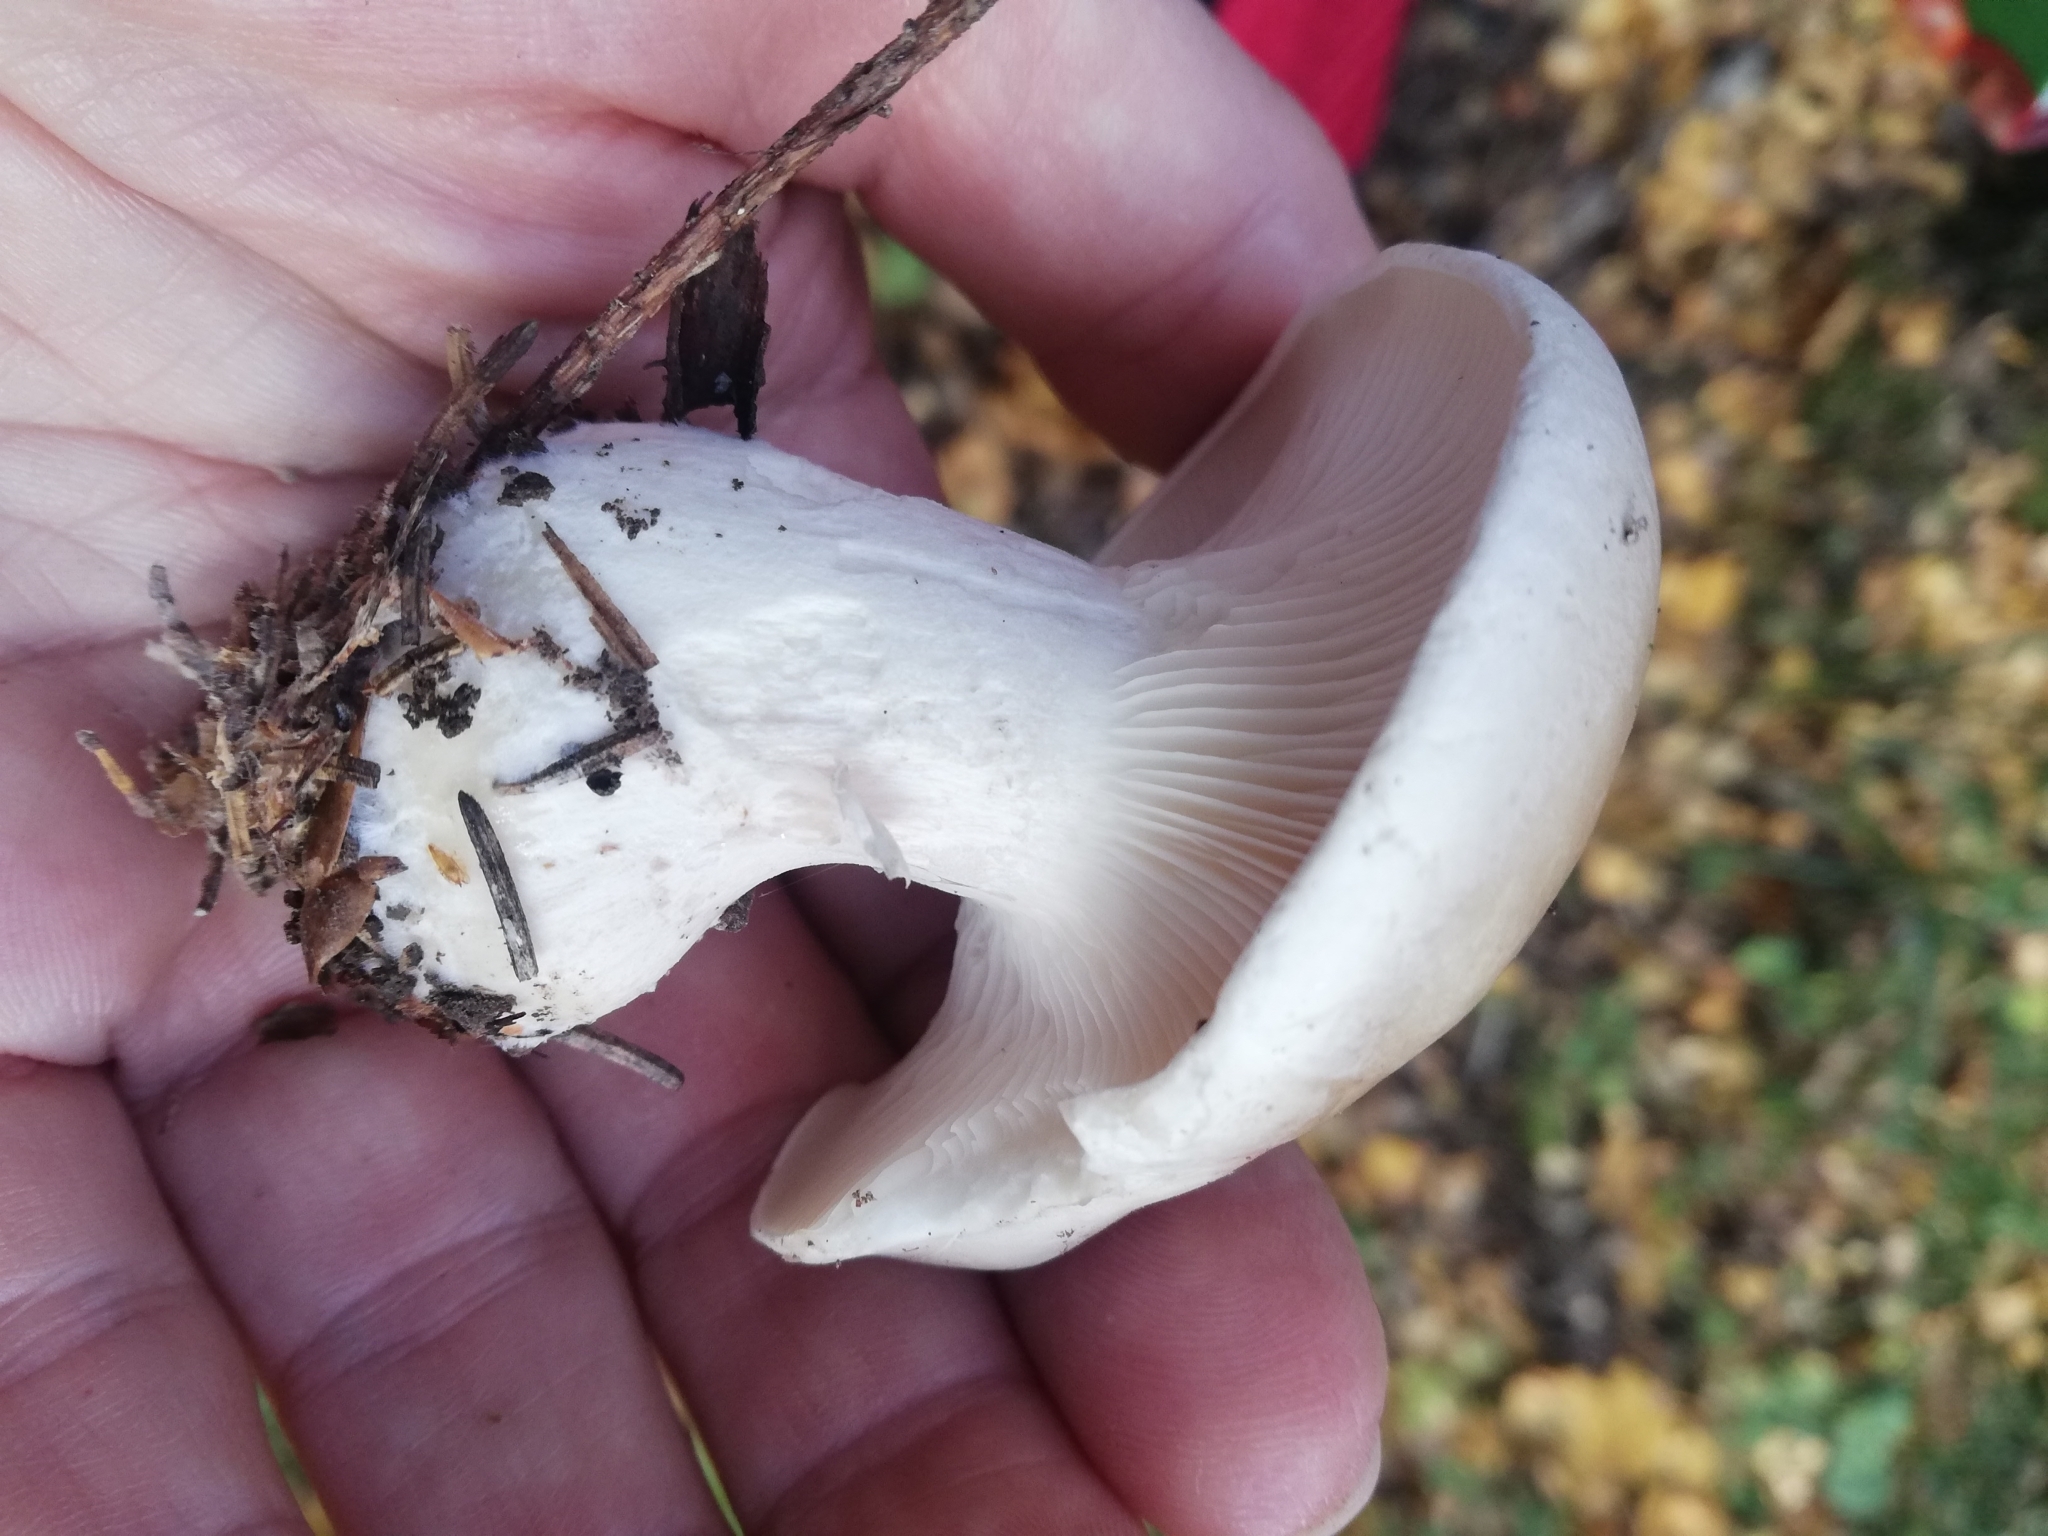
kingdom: Fungi
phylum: Basidiomycota
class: Agaricomycetes
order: Agaricales
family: Tricholomataceae
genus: Clitocybe
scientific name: Clitocybe nebularis
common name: Clouded agaric
